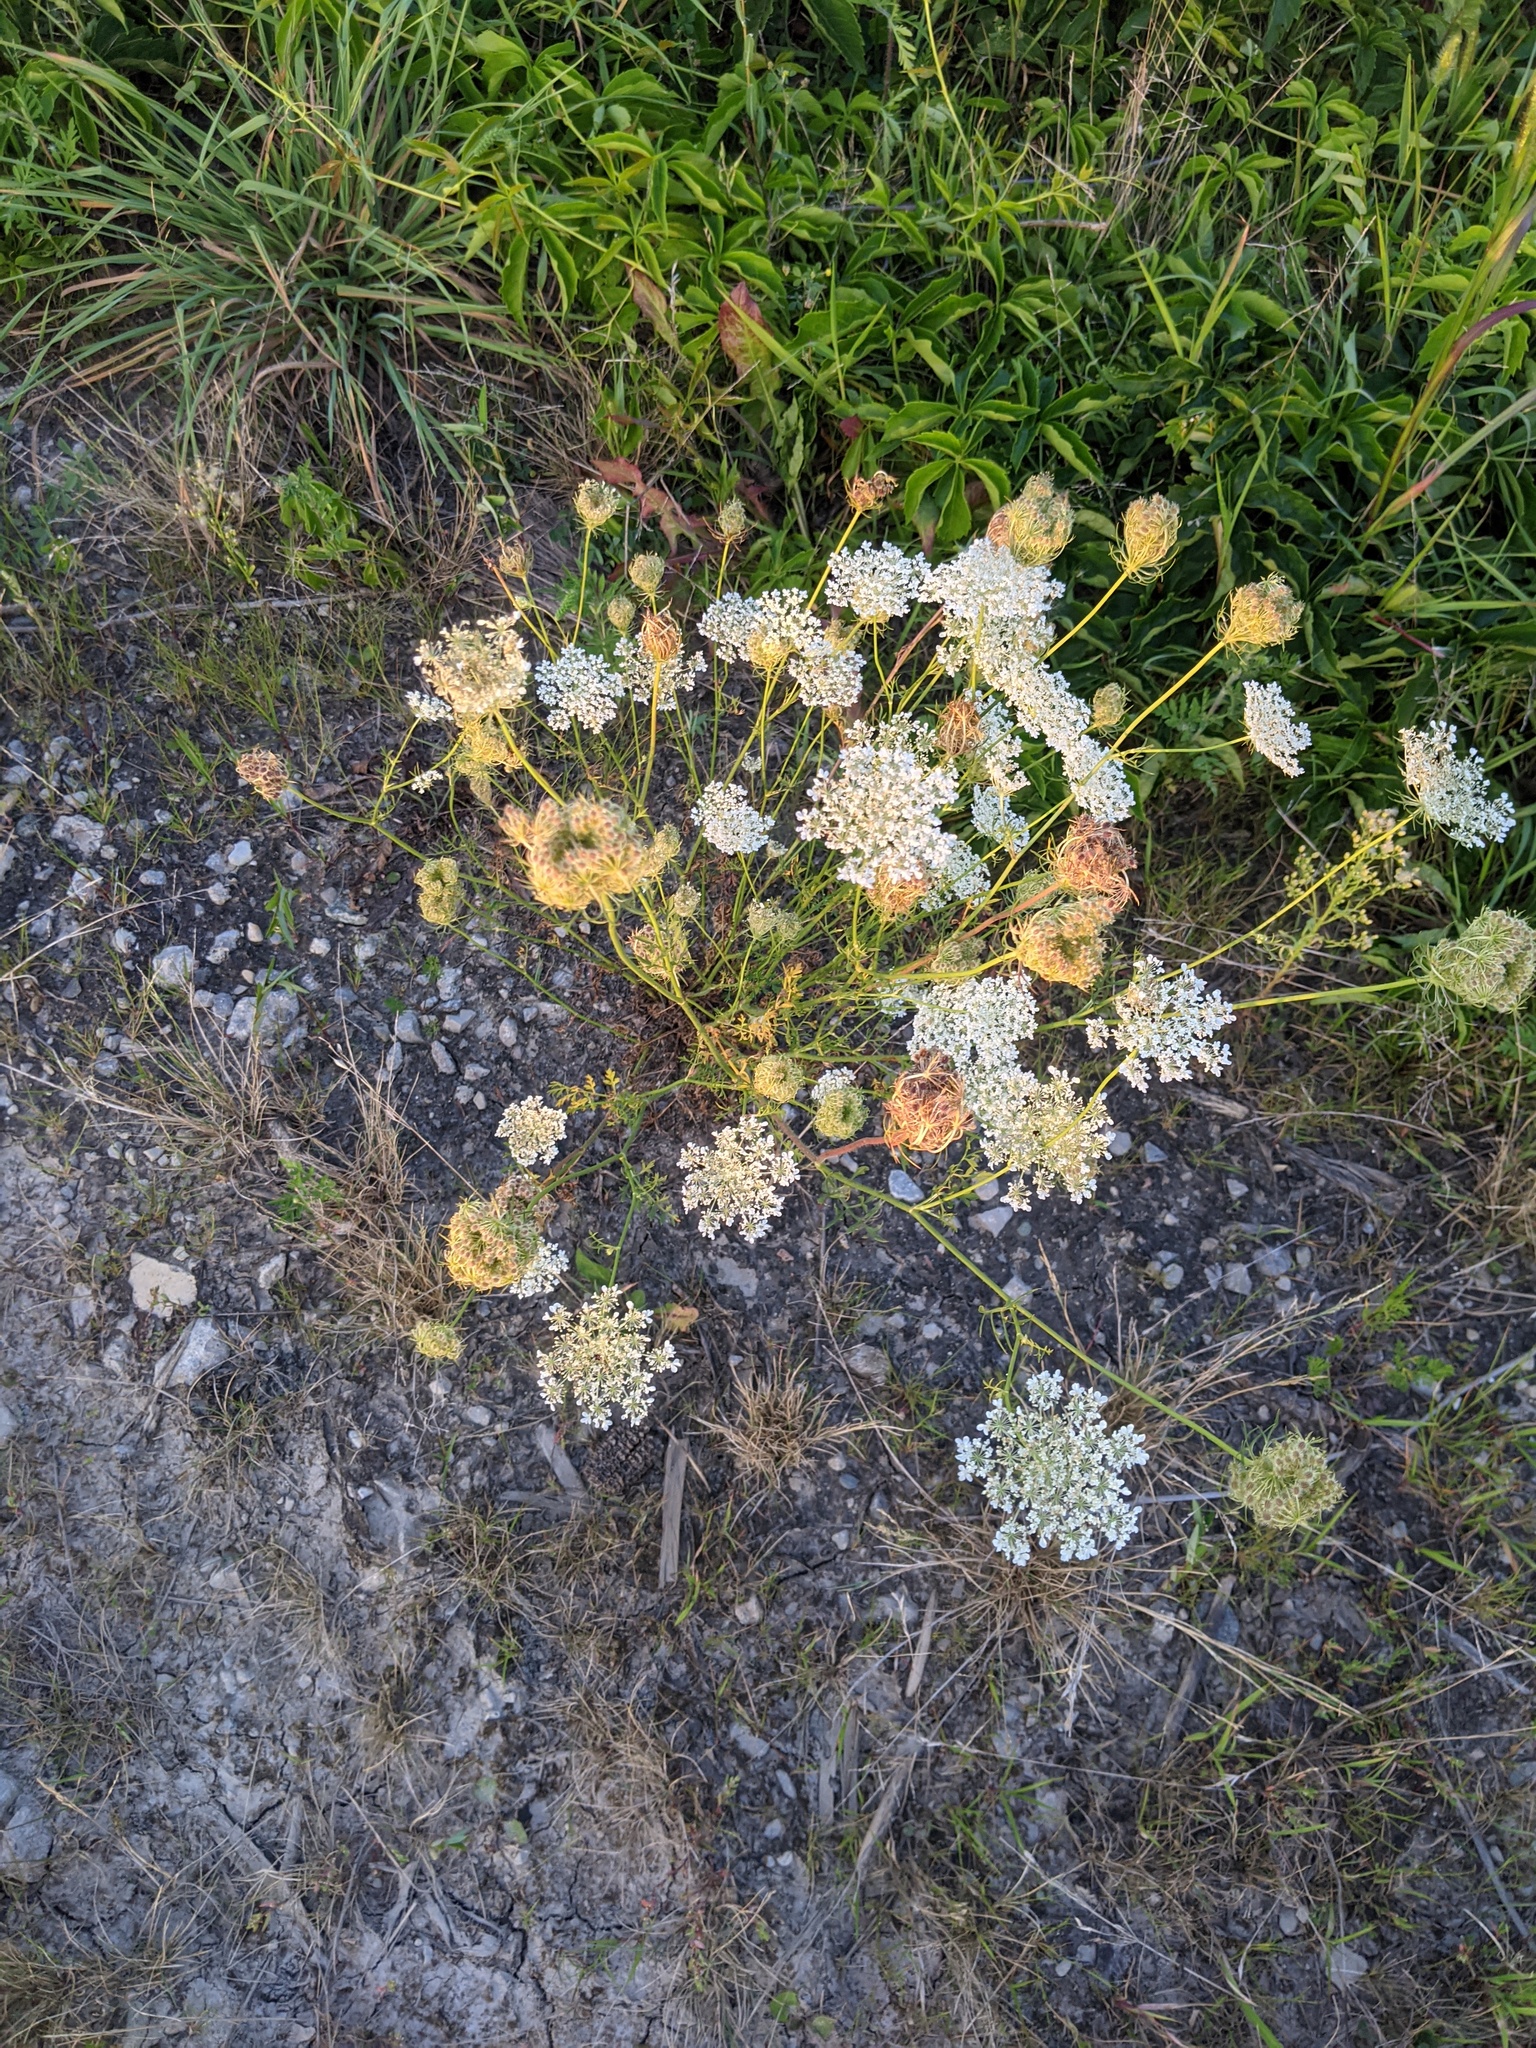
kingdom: Plantae
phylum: Tracheophyta
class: Magnoliopsida
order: Apiales
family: Apiaceae
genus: Daucus
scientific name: Daucus carota
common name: Wild carrot
